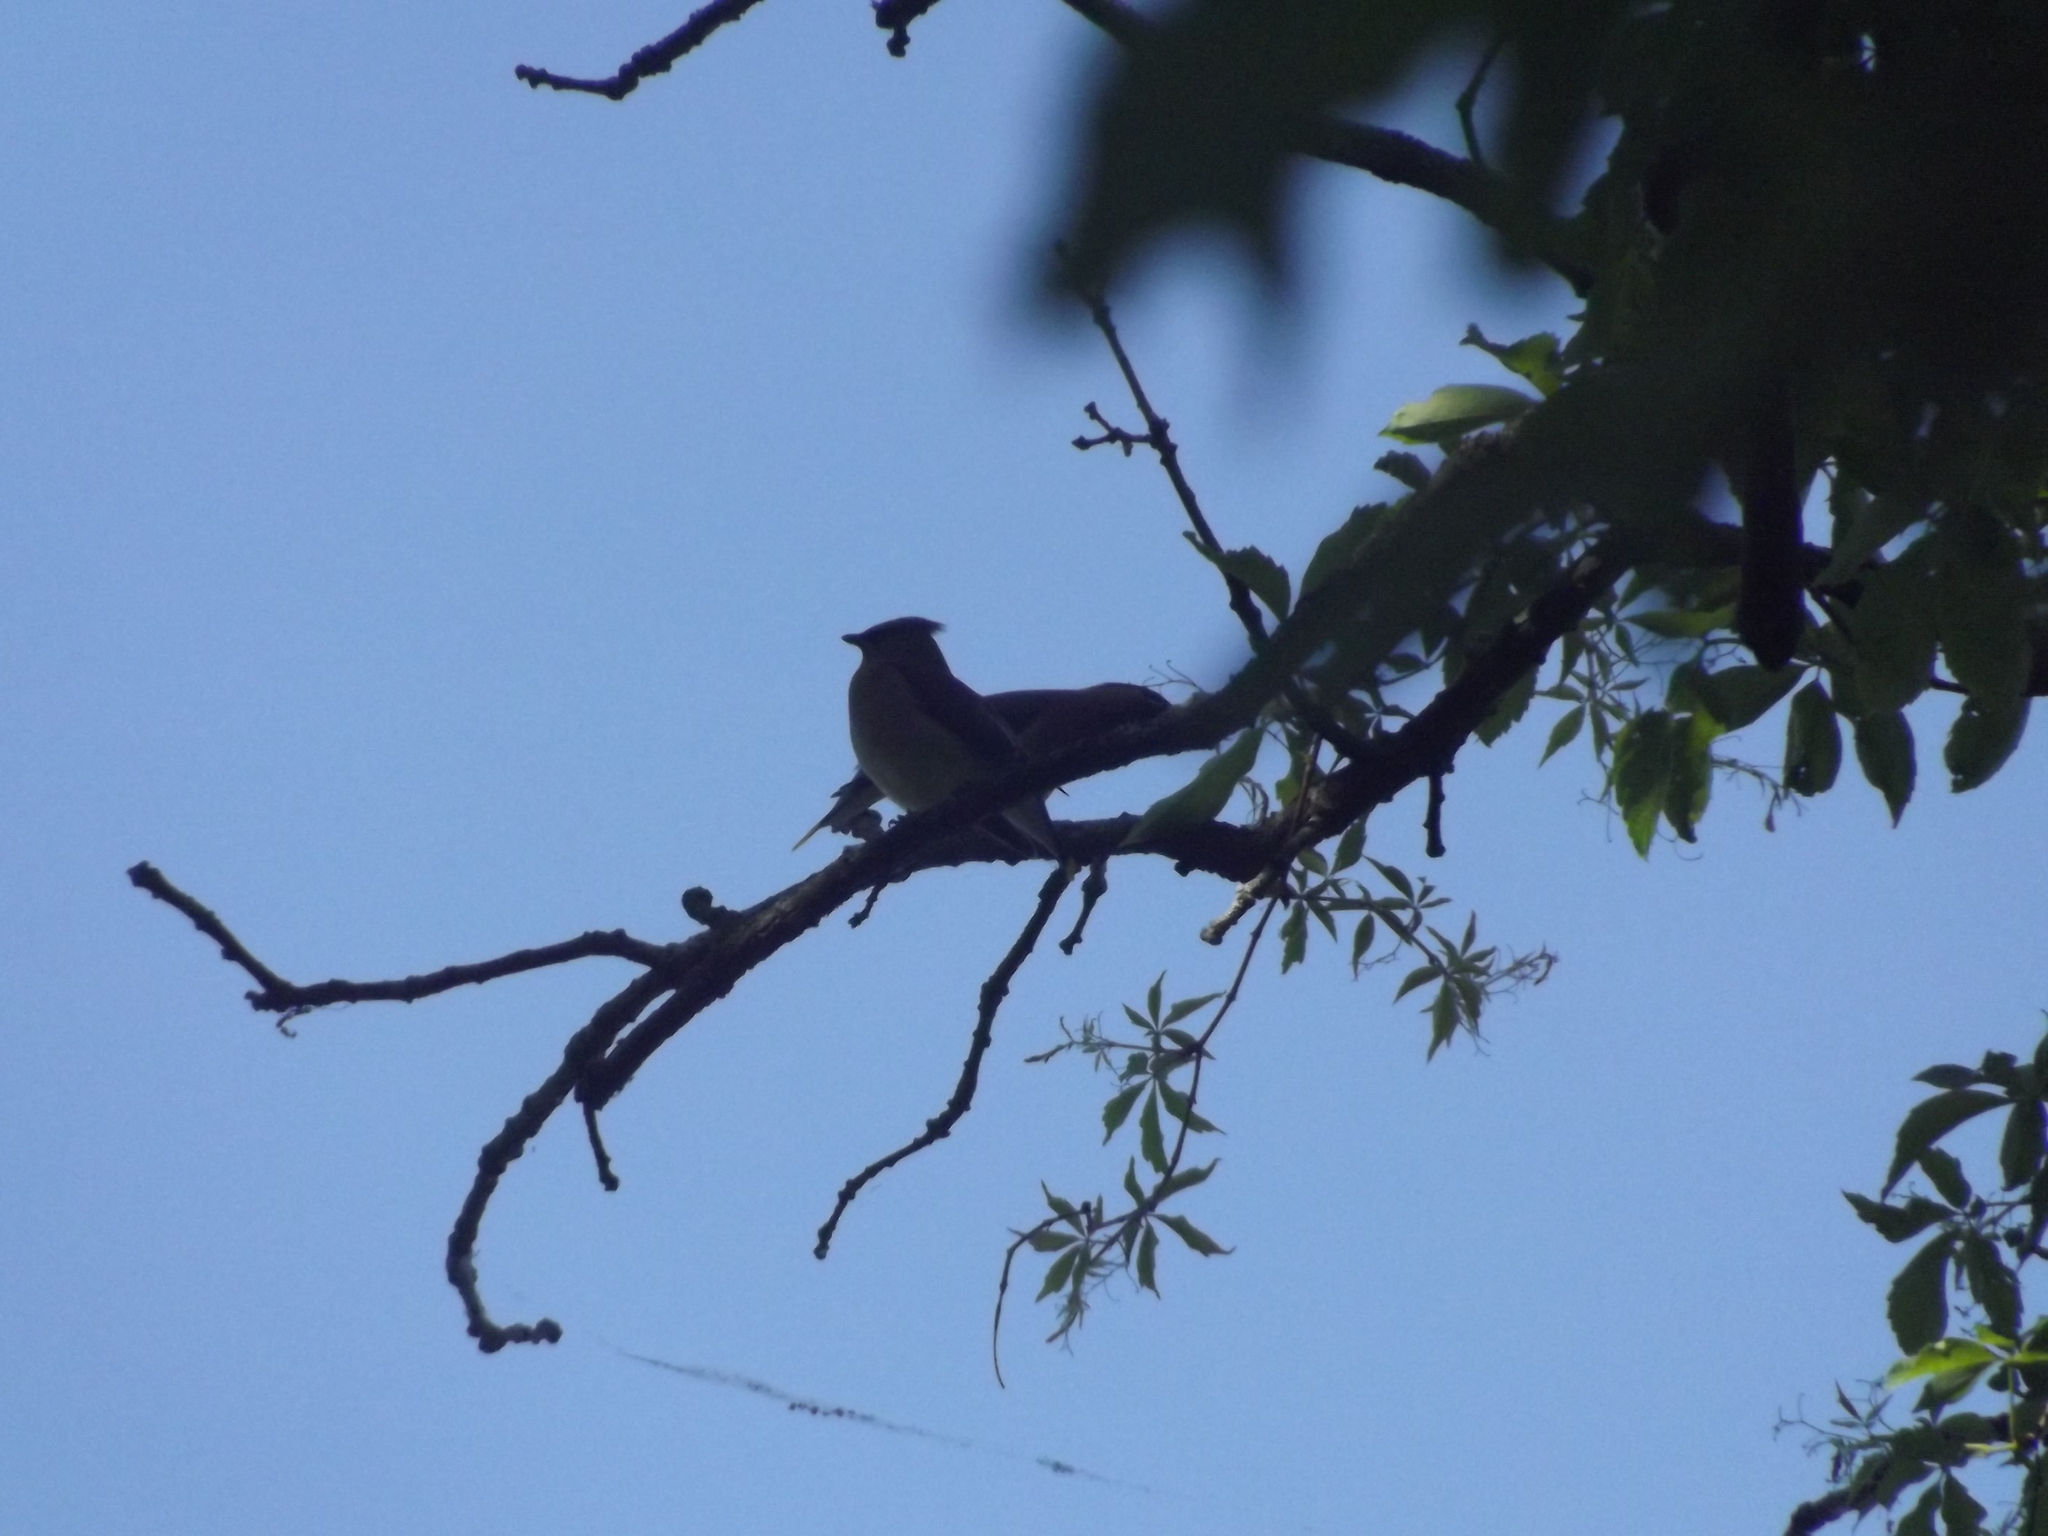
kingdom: Animalia
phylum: Chordata
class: Aves
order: Passeriformes
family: Bombycillidae
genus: Bombycilla
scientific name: Bombycilla cedrorum
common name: Cedar waxwing
